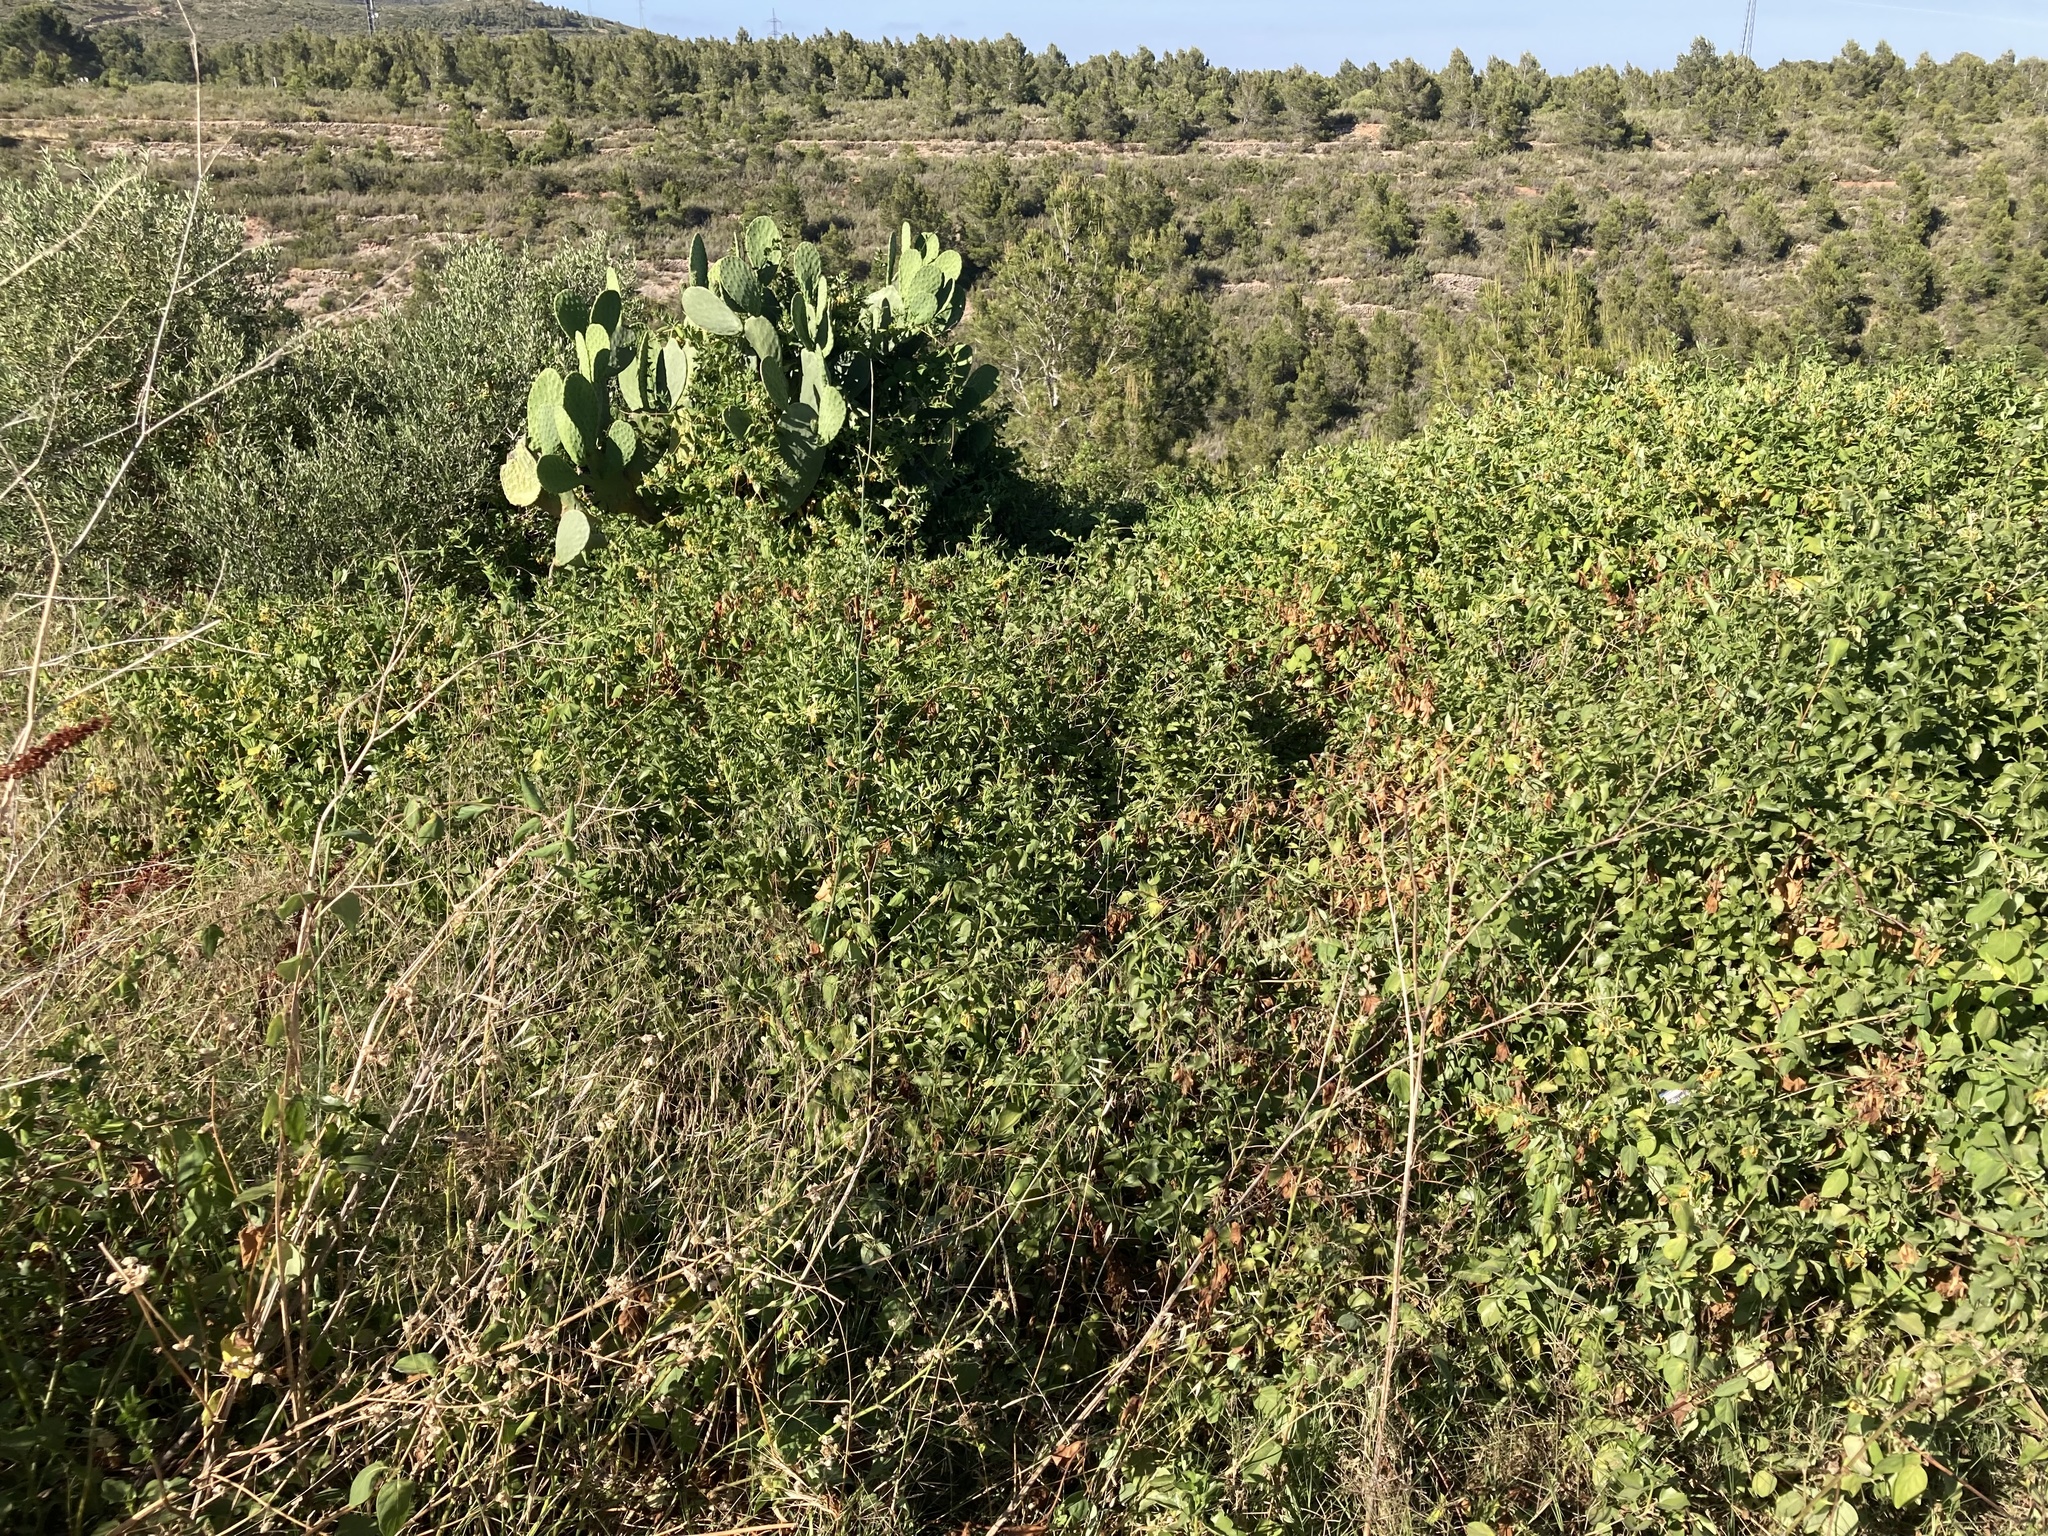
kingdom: Plantae
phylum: Tracheophyta
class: Magnoliopsida
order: Dipsacales
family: Caprifoliaceae
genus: Lonicera
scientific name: Lonicera japonica
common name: Japanese honeysuckle
